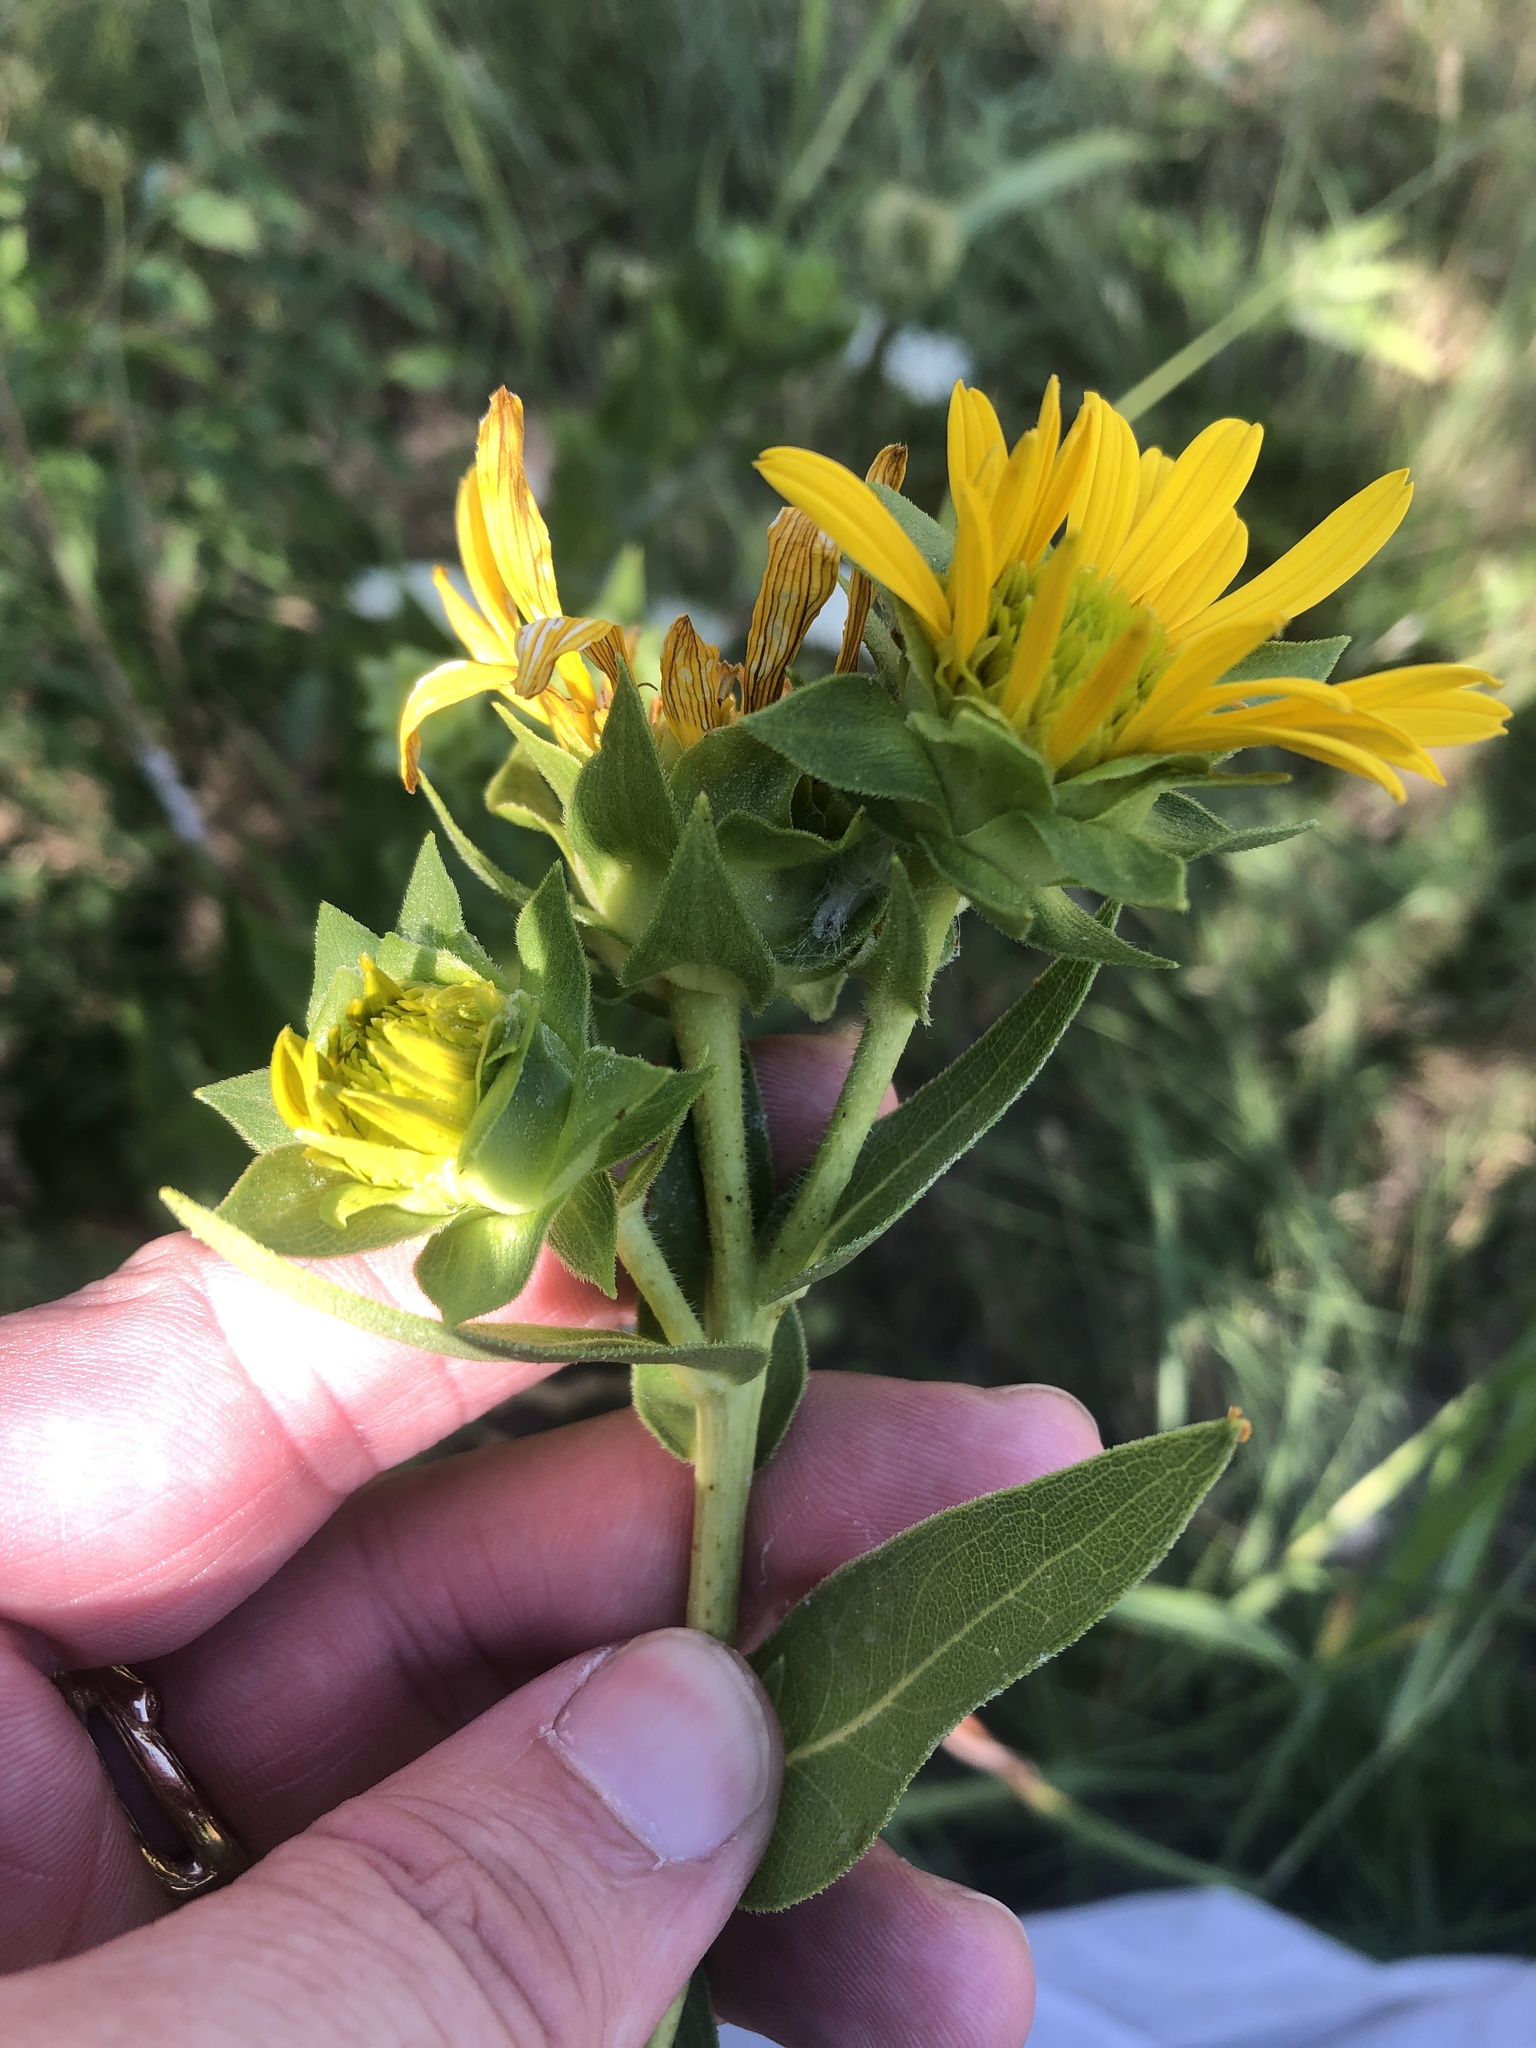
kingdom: Plantae
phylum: Tracheophyta
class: Magnoliopsida
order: Asterales
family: Asteraceae
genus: Silphium
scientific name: Silphium radula
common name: Roughleaf rosinweed
